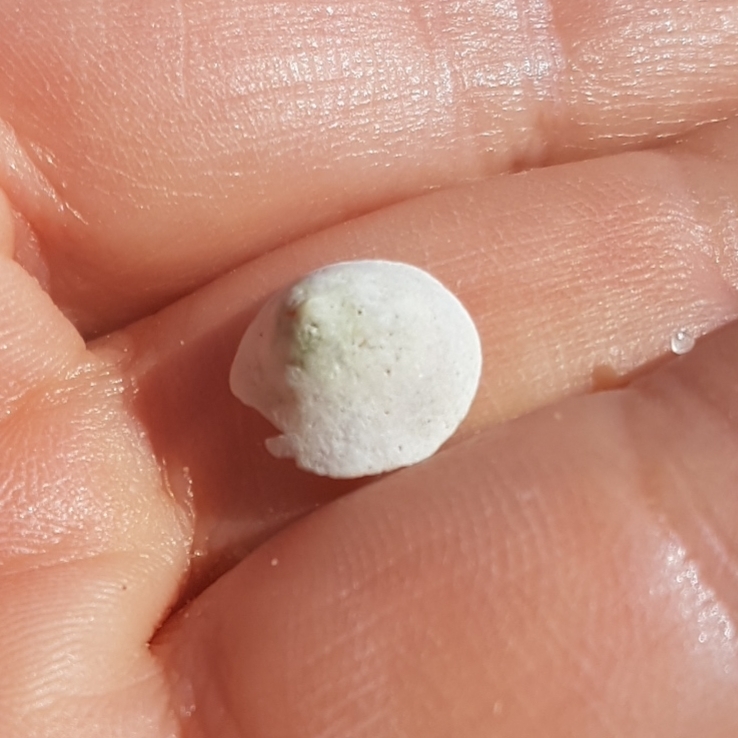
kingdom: Animalia
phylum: Mollusca
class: Gastropoda
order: Littorinimorpha
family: Calyptraeidae
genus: Calyptraea
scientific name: Calyptraea chinensis
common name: Chinaman's hat
